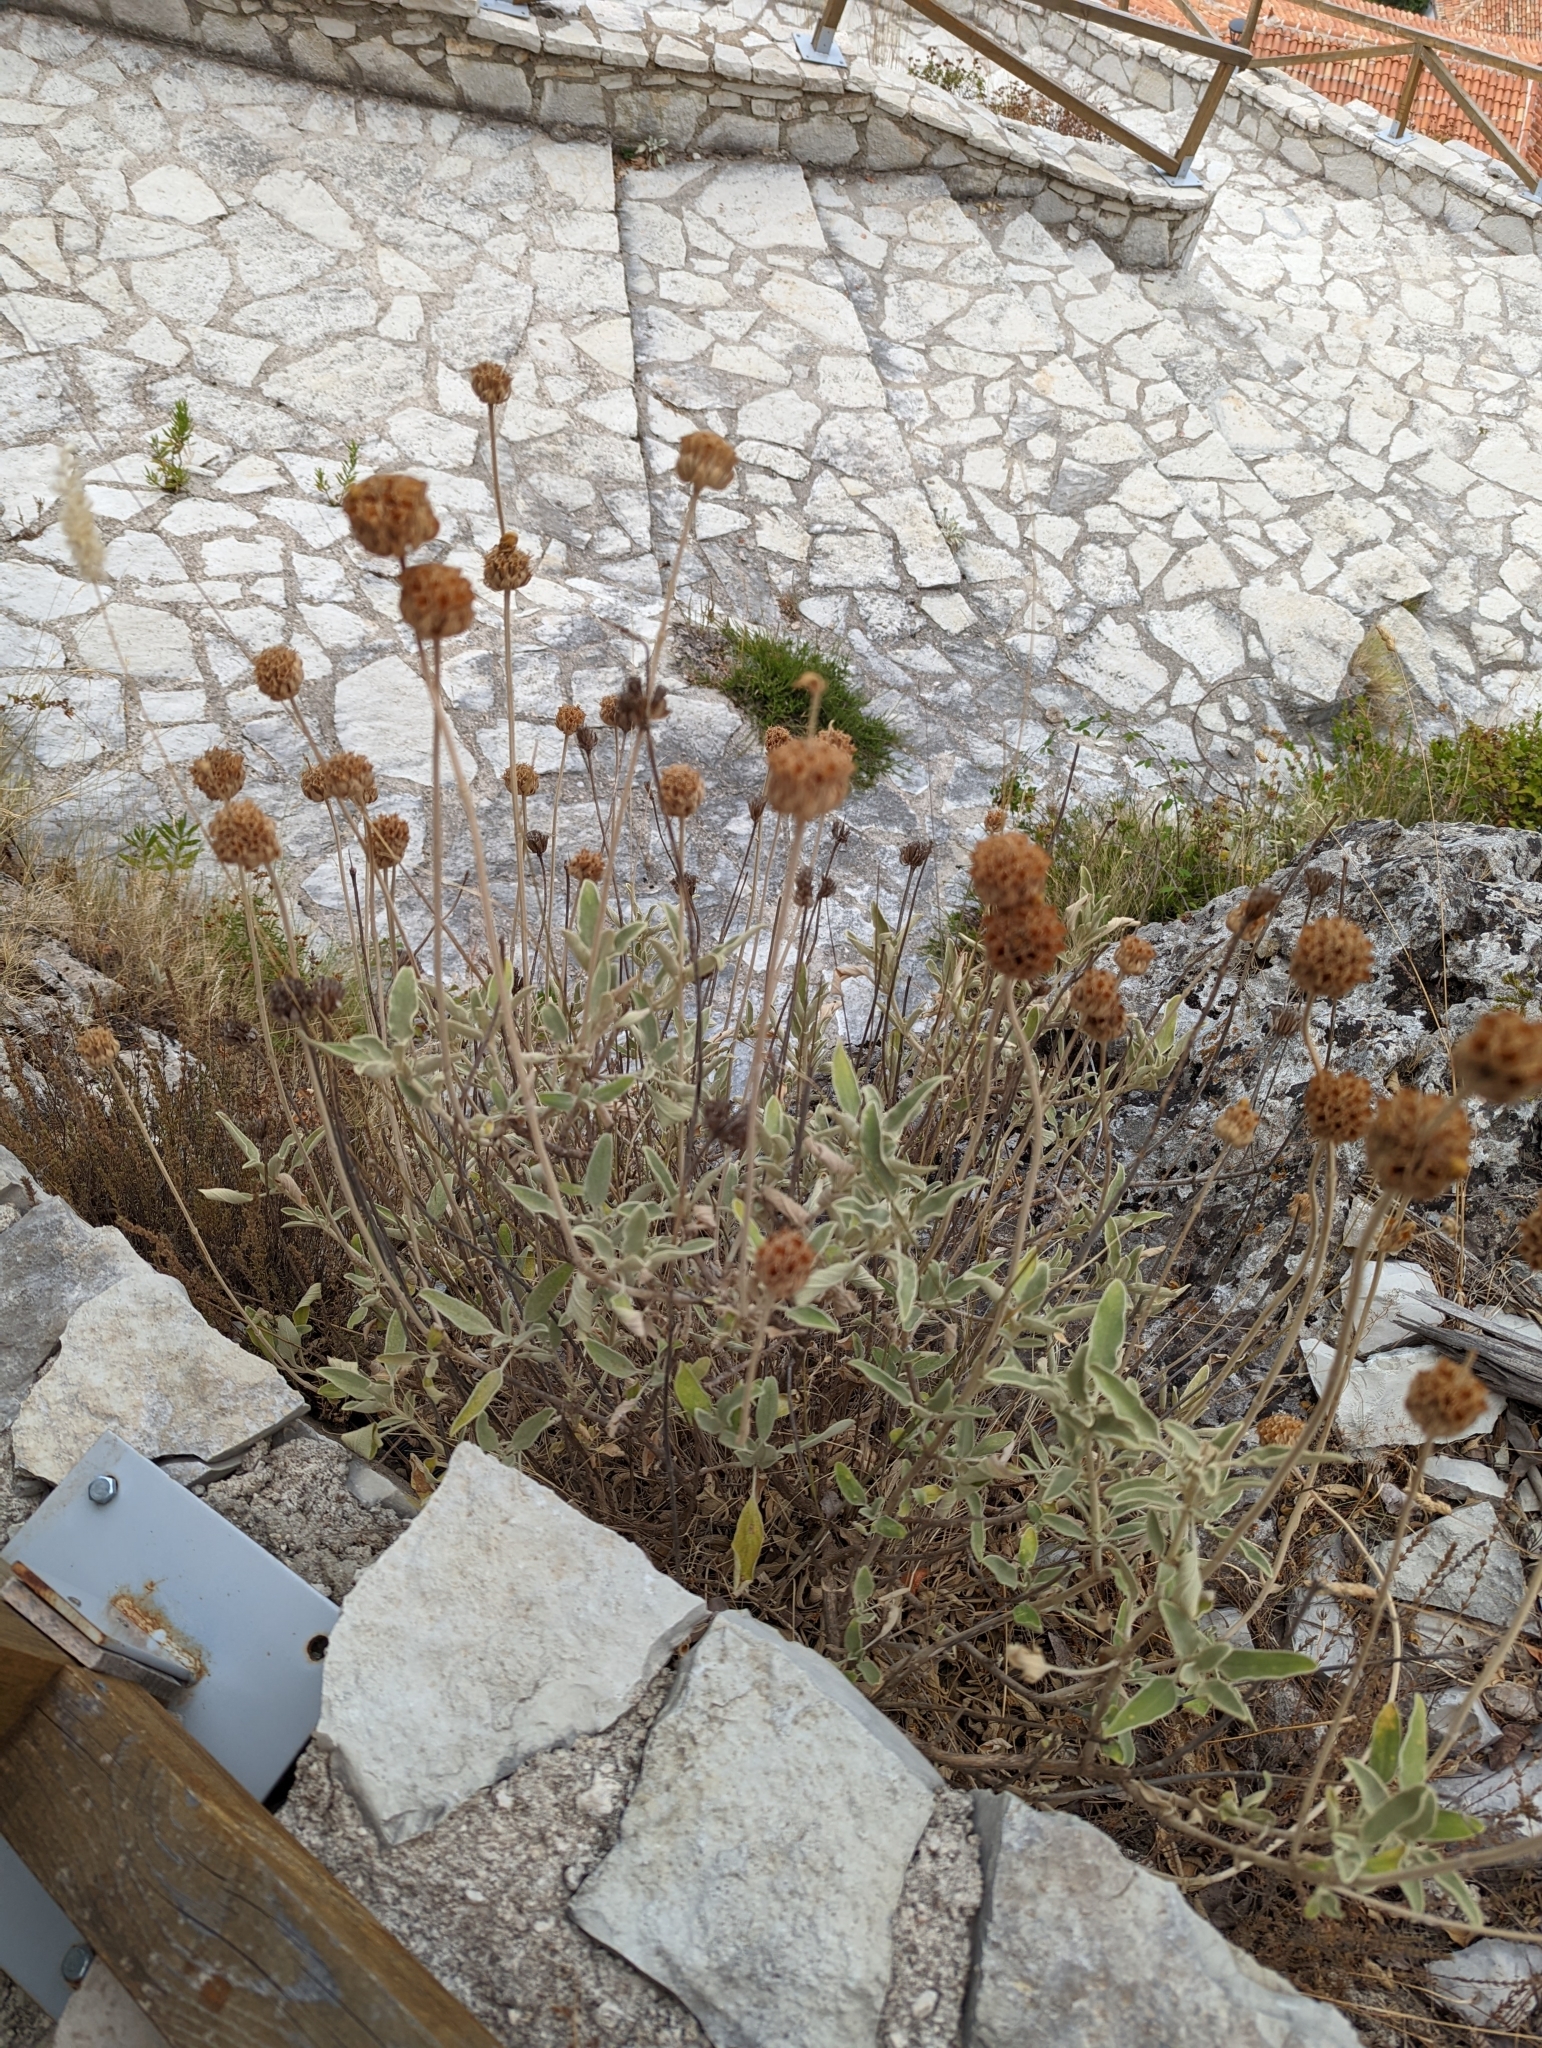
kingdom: Plantae
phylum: Tracheophyta
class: Magnoliopsida
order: Lamiales
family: Lamiaceae
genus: Phlomis
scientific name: Phlomis fruticosa
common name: Jerusalem sage
